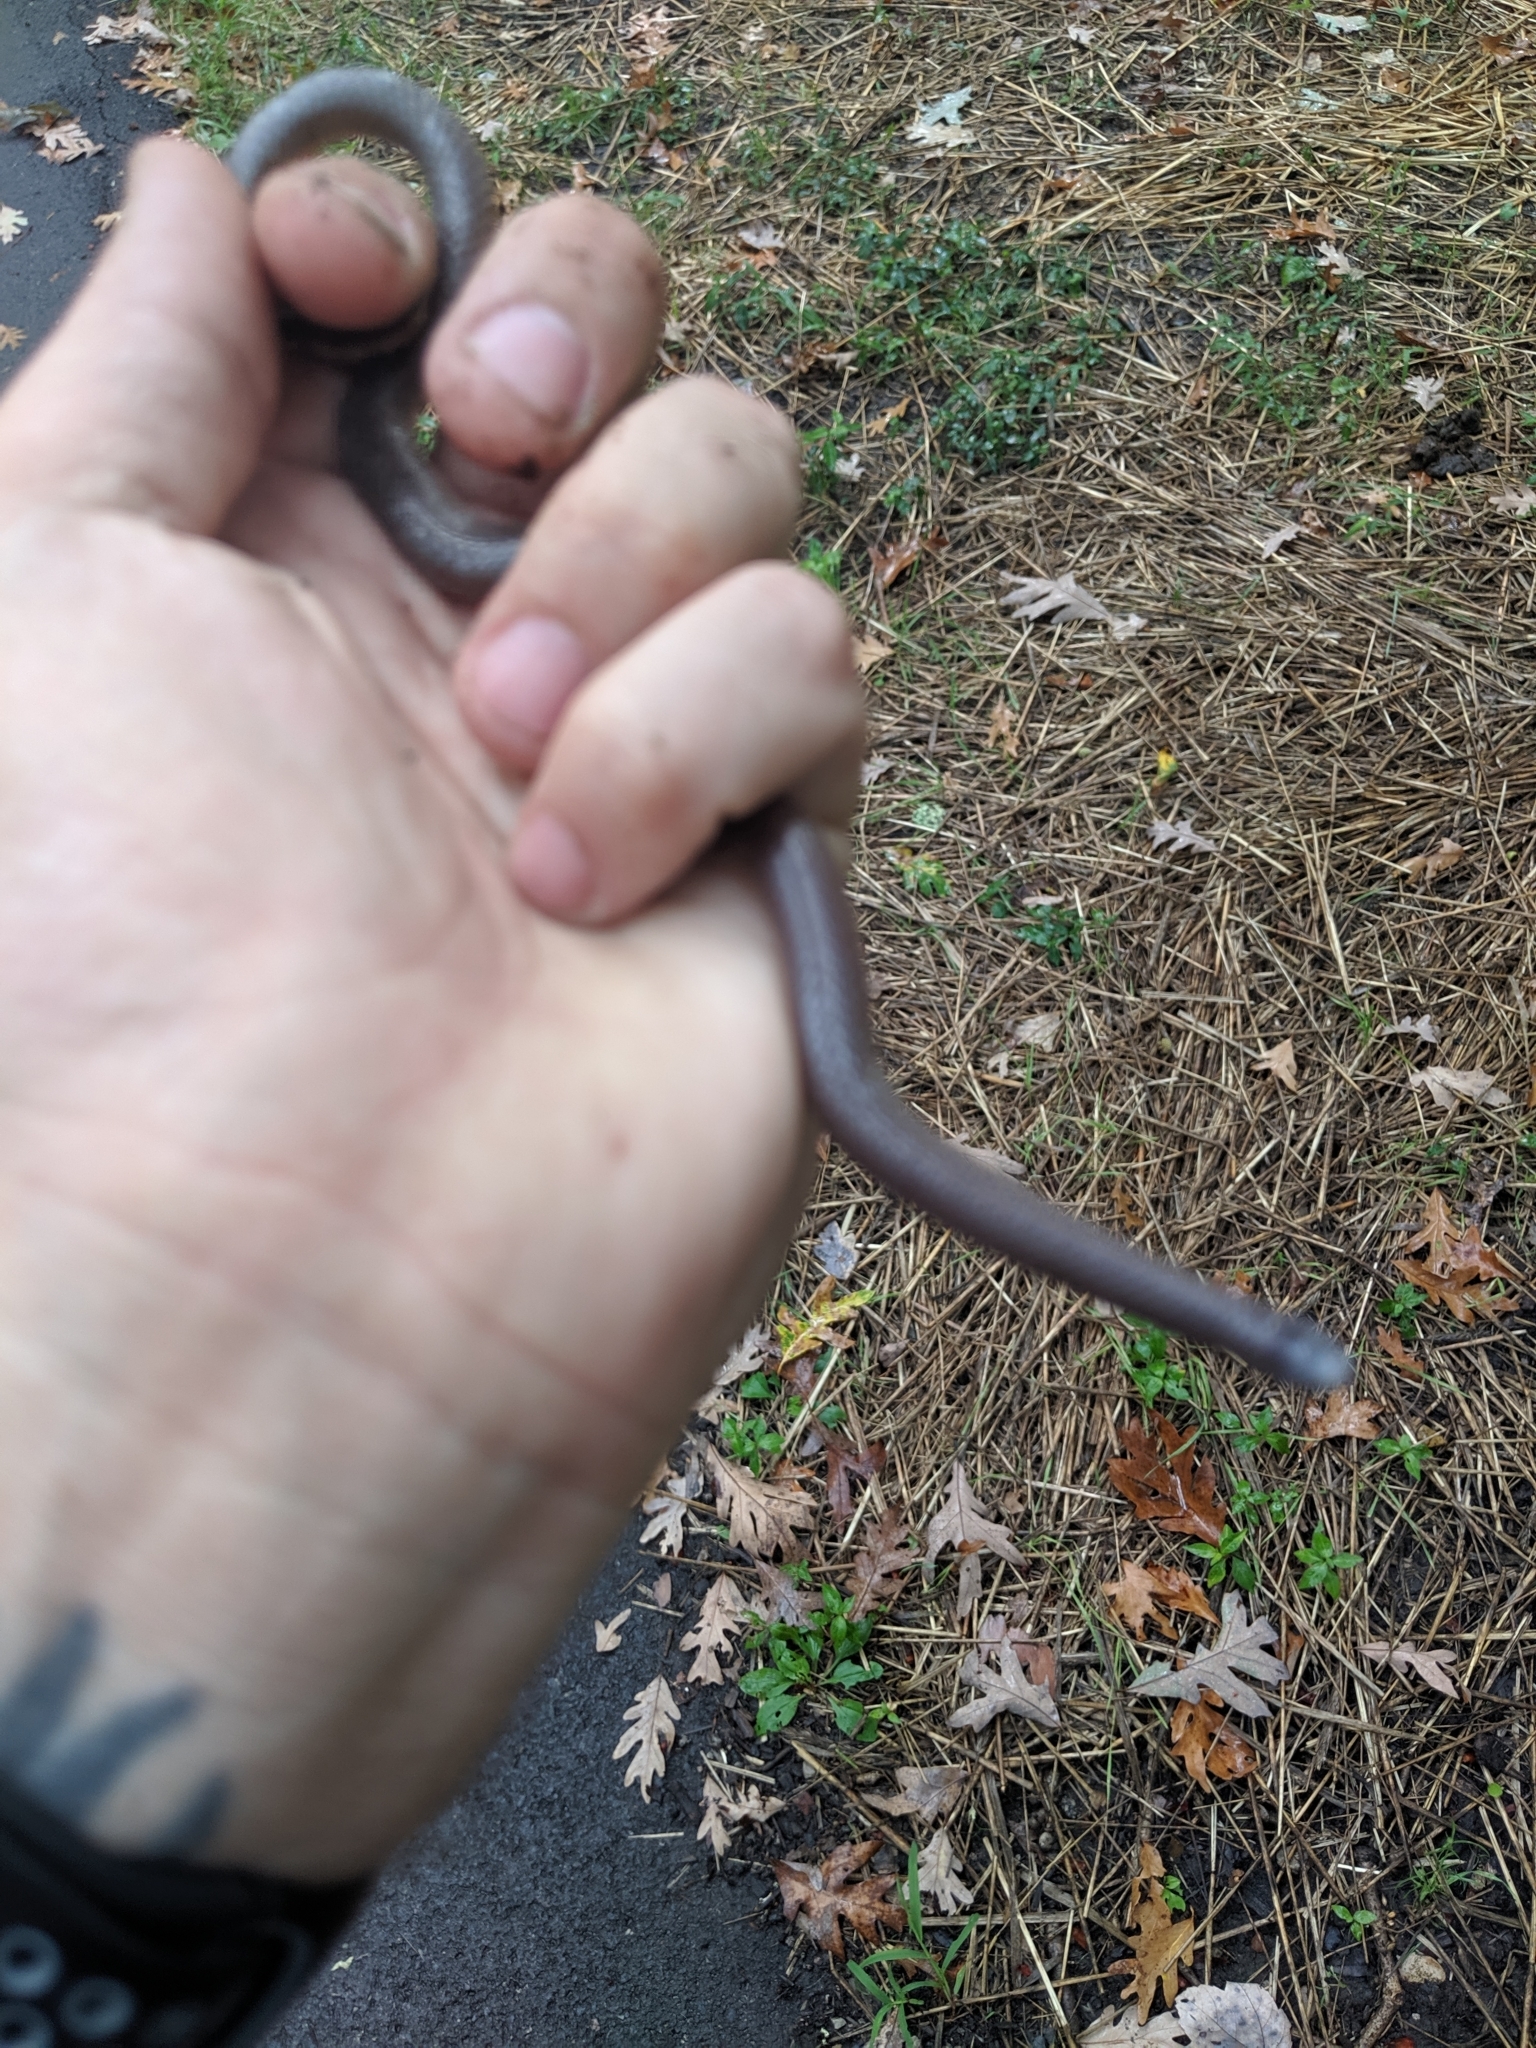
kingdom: Animalia
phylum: Chordata
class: Squamata
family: Colubridae
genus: Carphophis
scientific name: Carphophis amoenus
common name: Eastern worm snake
